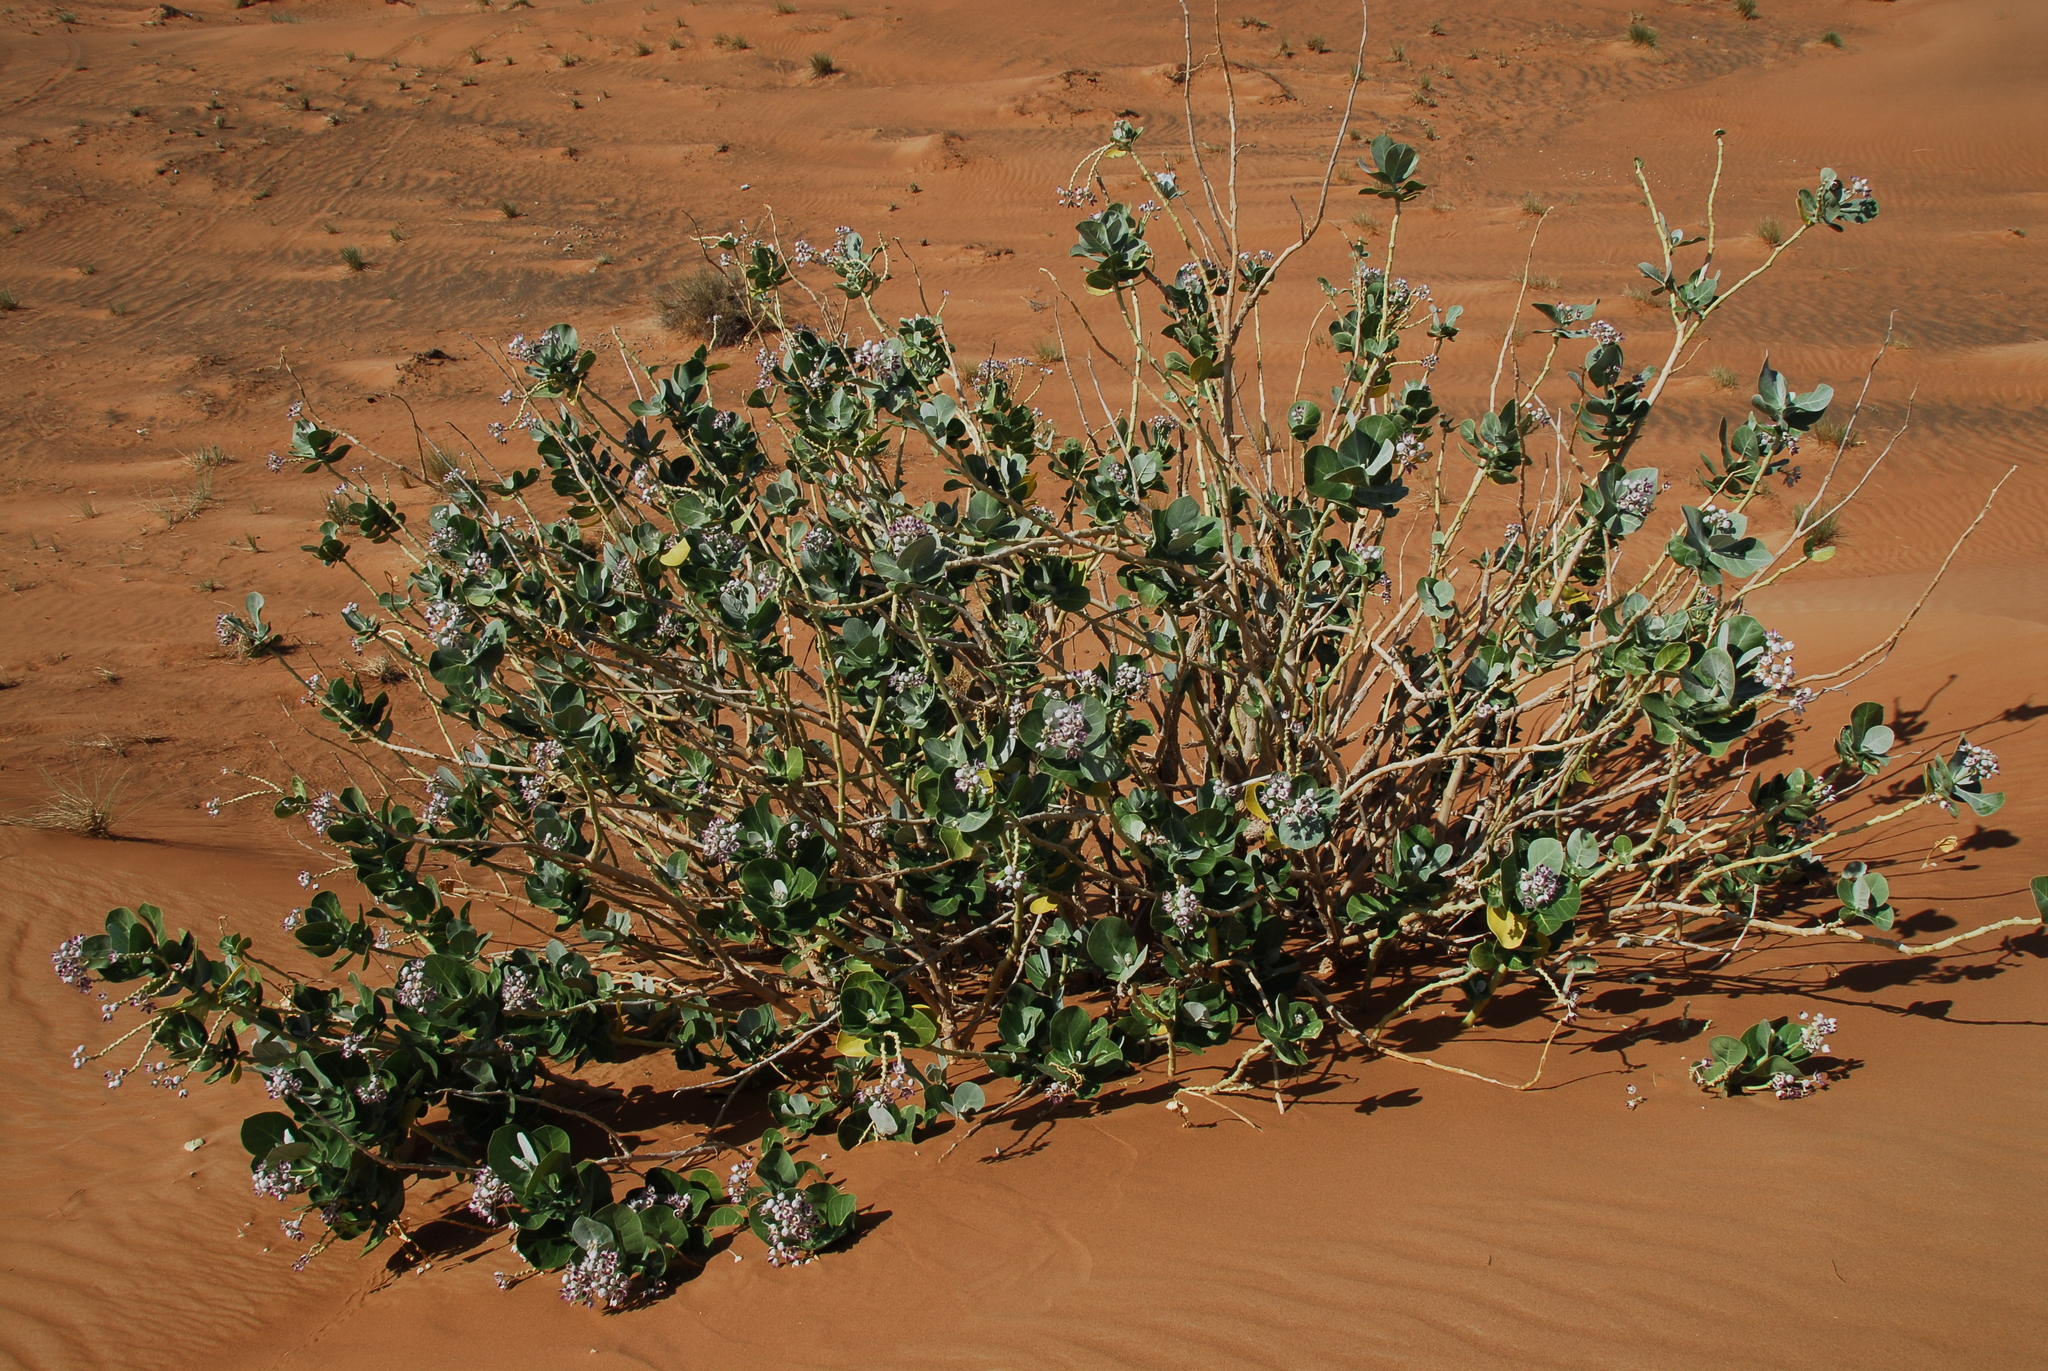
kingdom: Plantae
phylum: Tracheophyta
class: Magnoliopsida
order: Gentianales
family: Apocynaceae
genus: Calotropis
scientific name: Calotropis procera
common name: Roostertree
